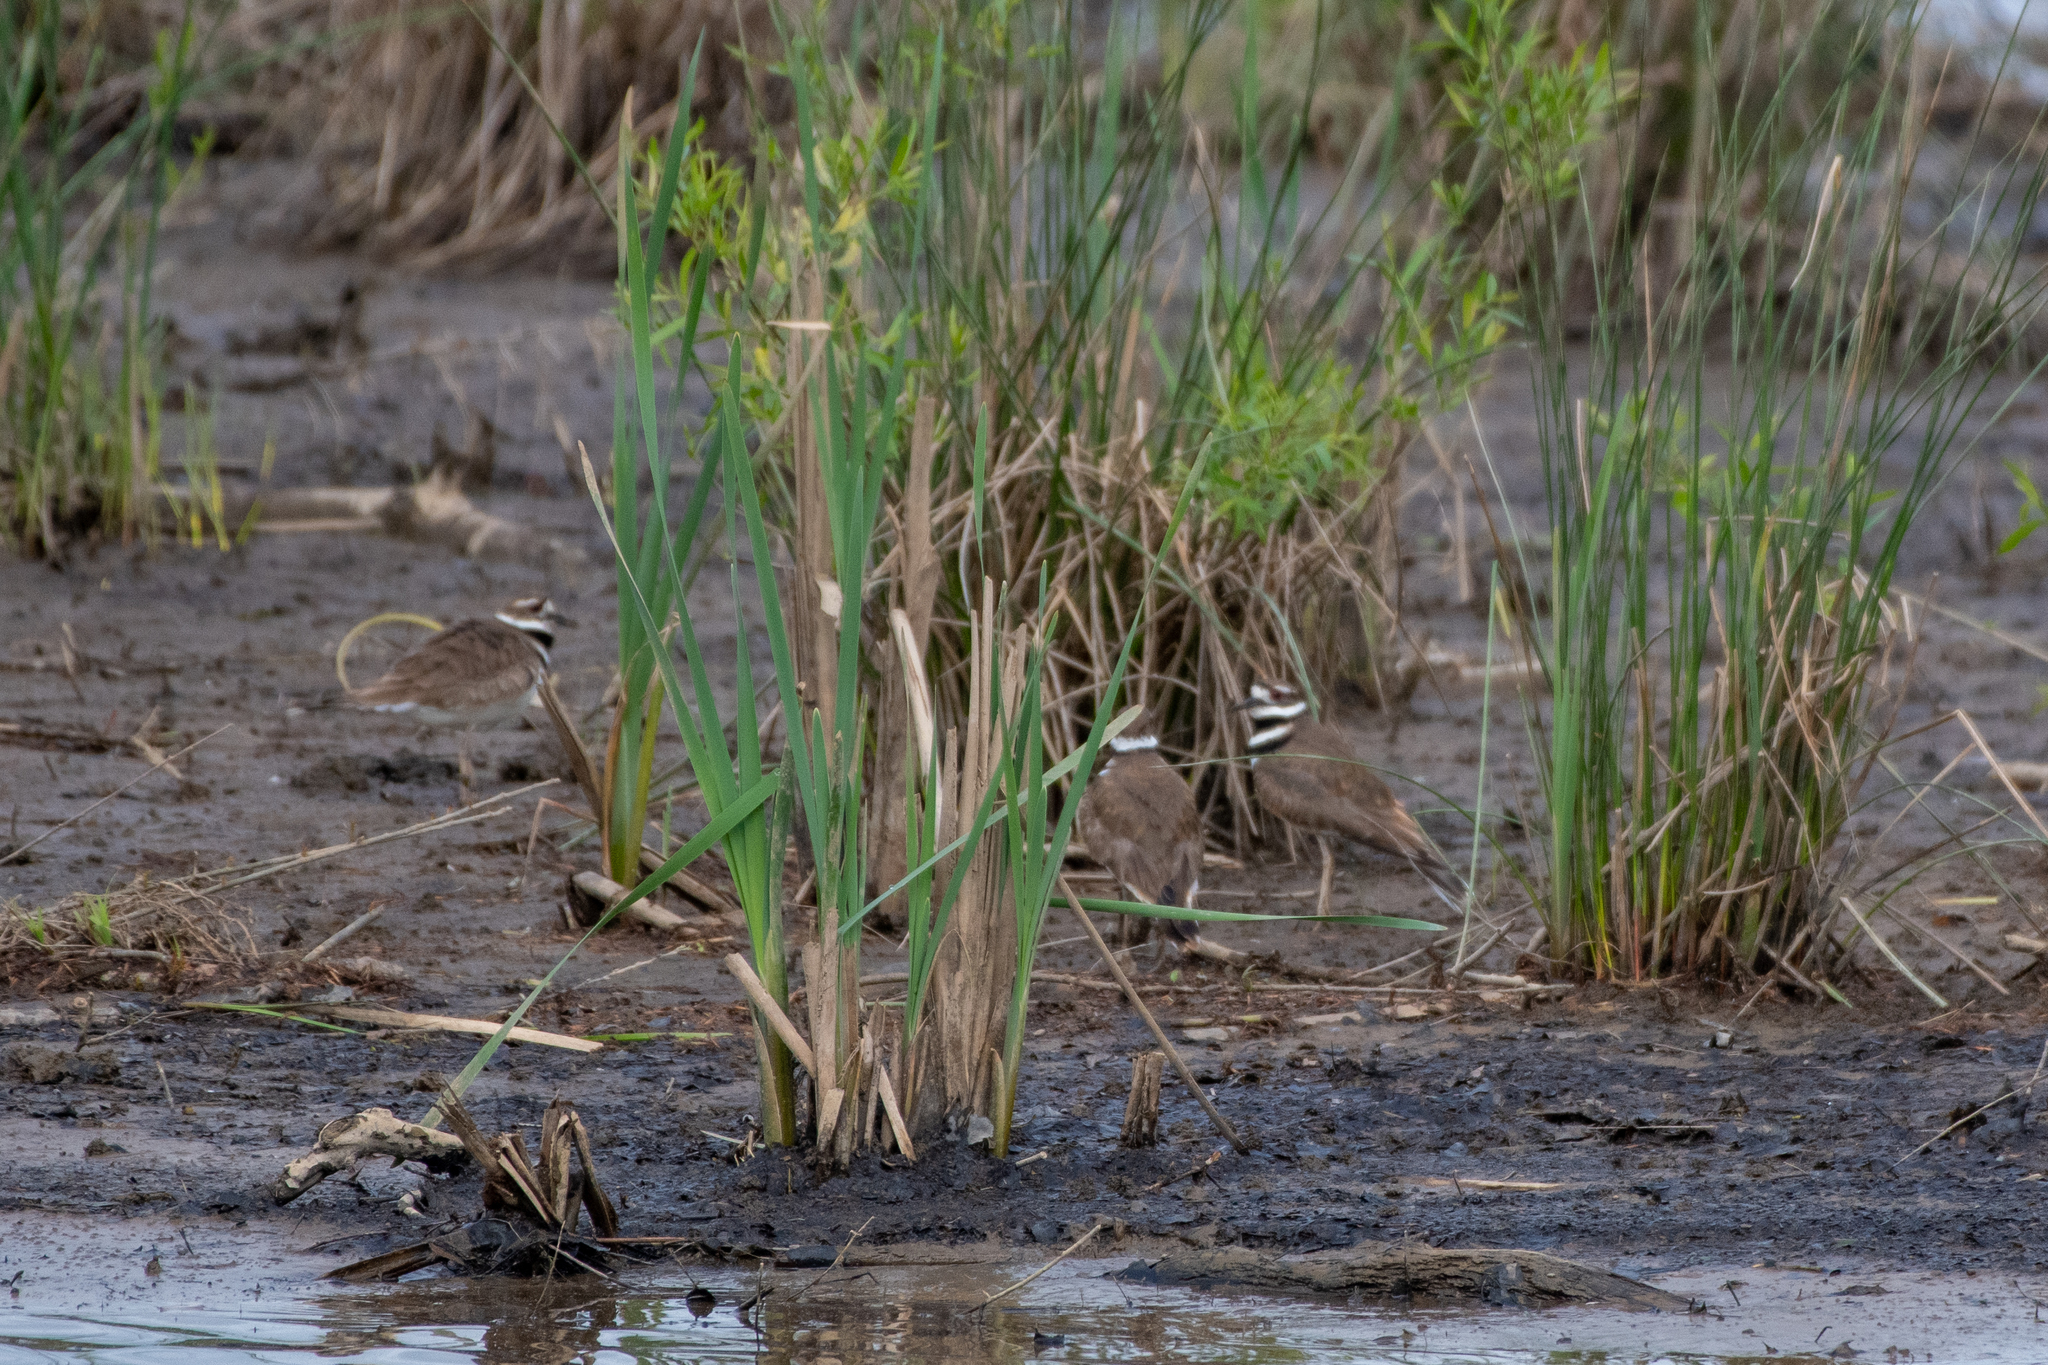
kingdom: Animalia
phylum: Chordata
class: Aves
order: Charadriiformes
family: Charadriidae
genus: Charadrius
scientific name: Charadrius vociferus
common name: Killdeer
